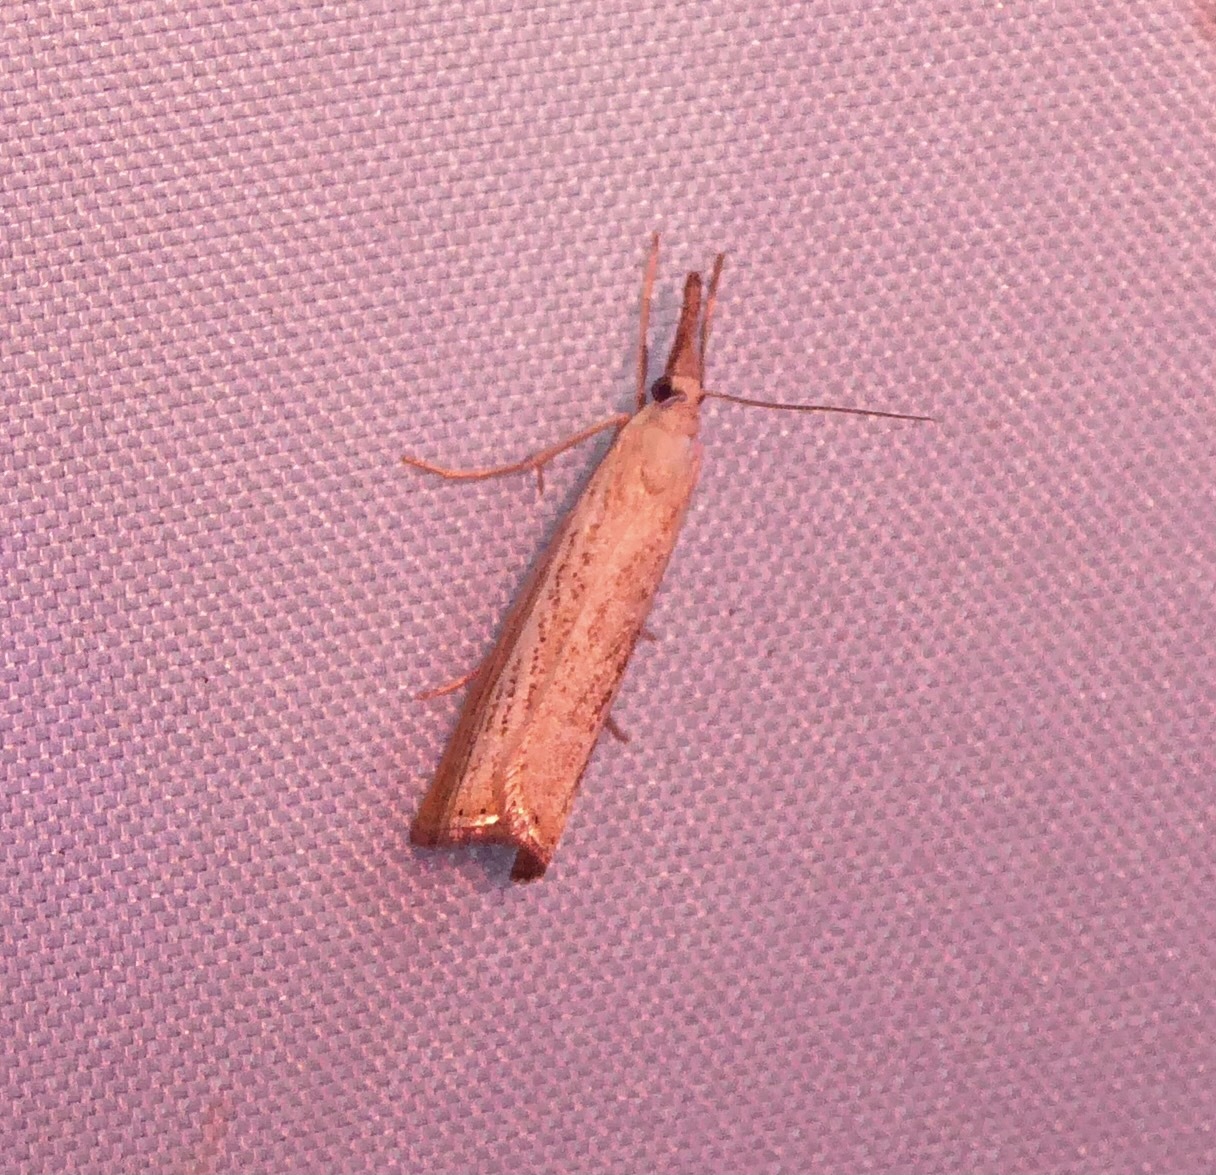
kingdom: Animalia
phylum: Arthropoda
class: Insecta
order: Lepidoptera
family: Crambidae
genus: Agriphila
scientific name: Agriphila straminella
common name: Straw grass-veneer
